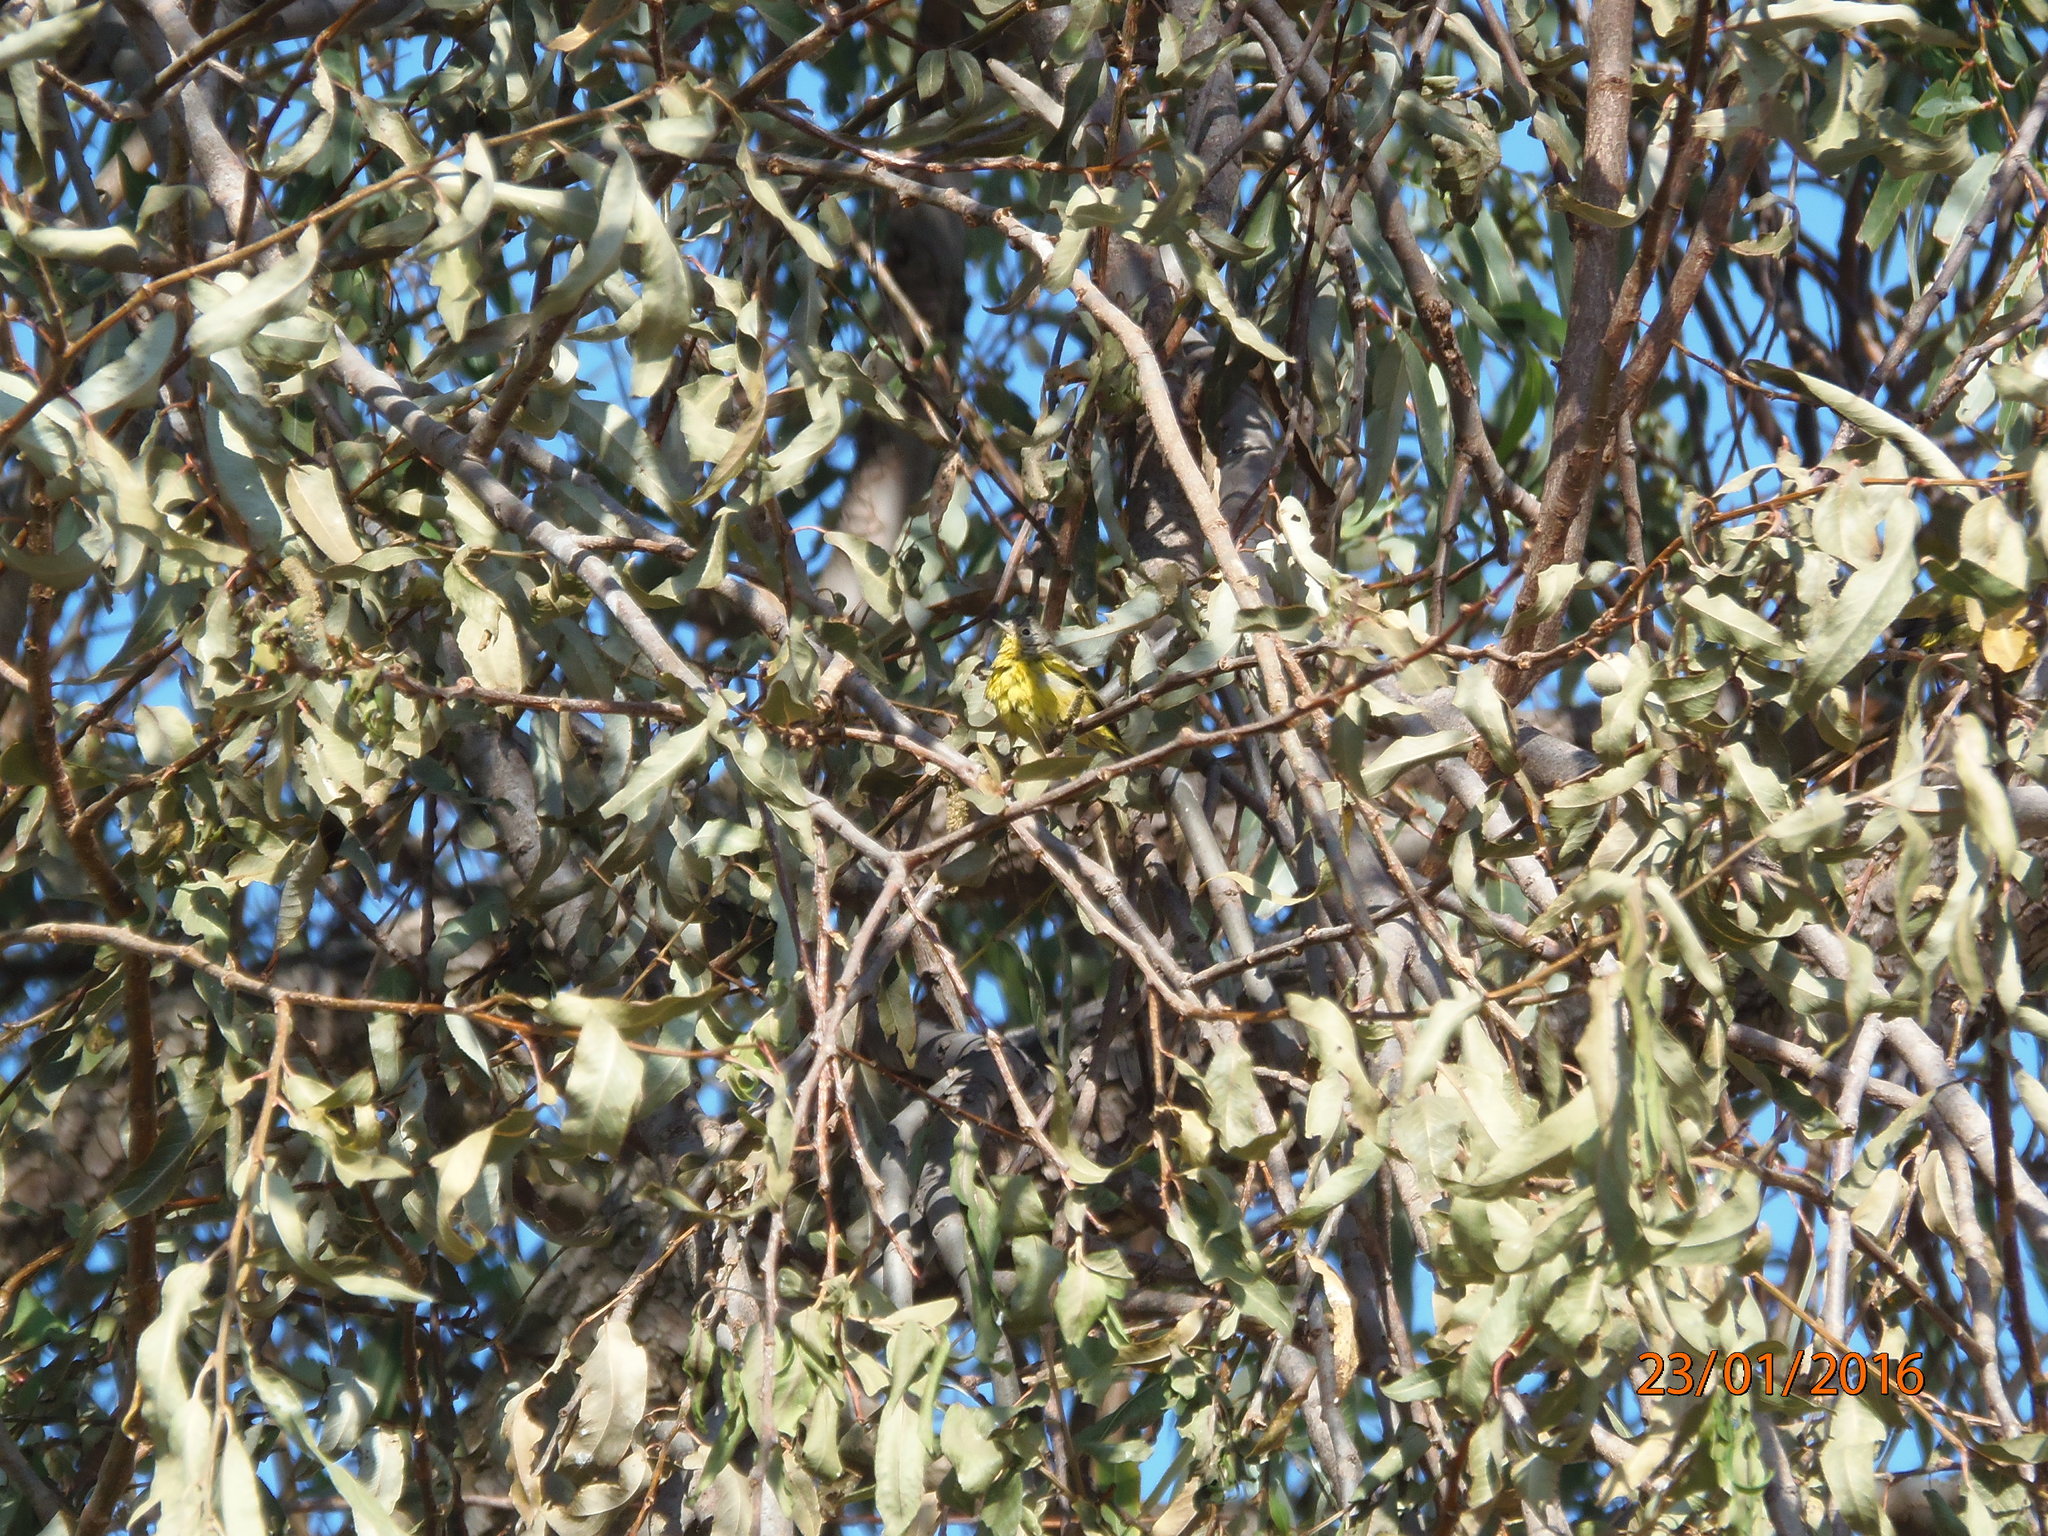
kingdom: Animalia
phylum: Chordata
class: Aves
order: Passeriformes
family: Parulidae
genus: Leiothlypis
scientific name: Leiothlypis ruficapilla
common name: Nashville warbler
